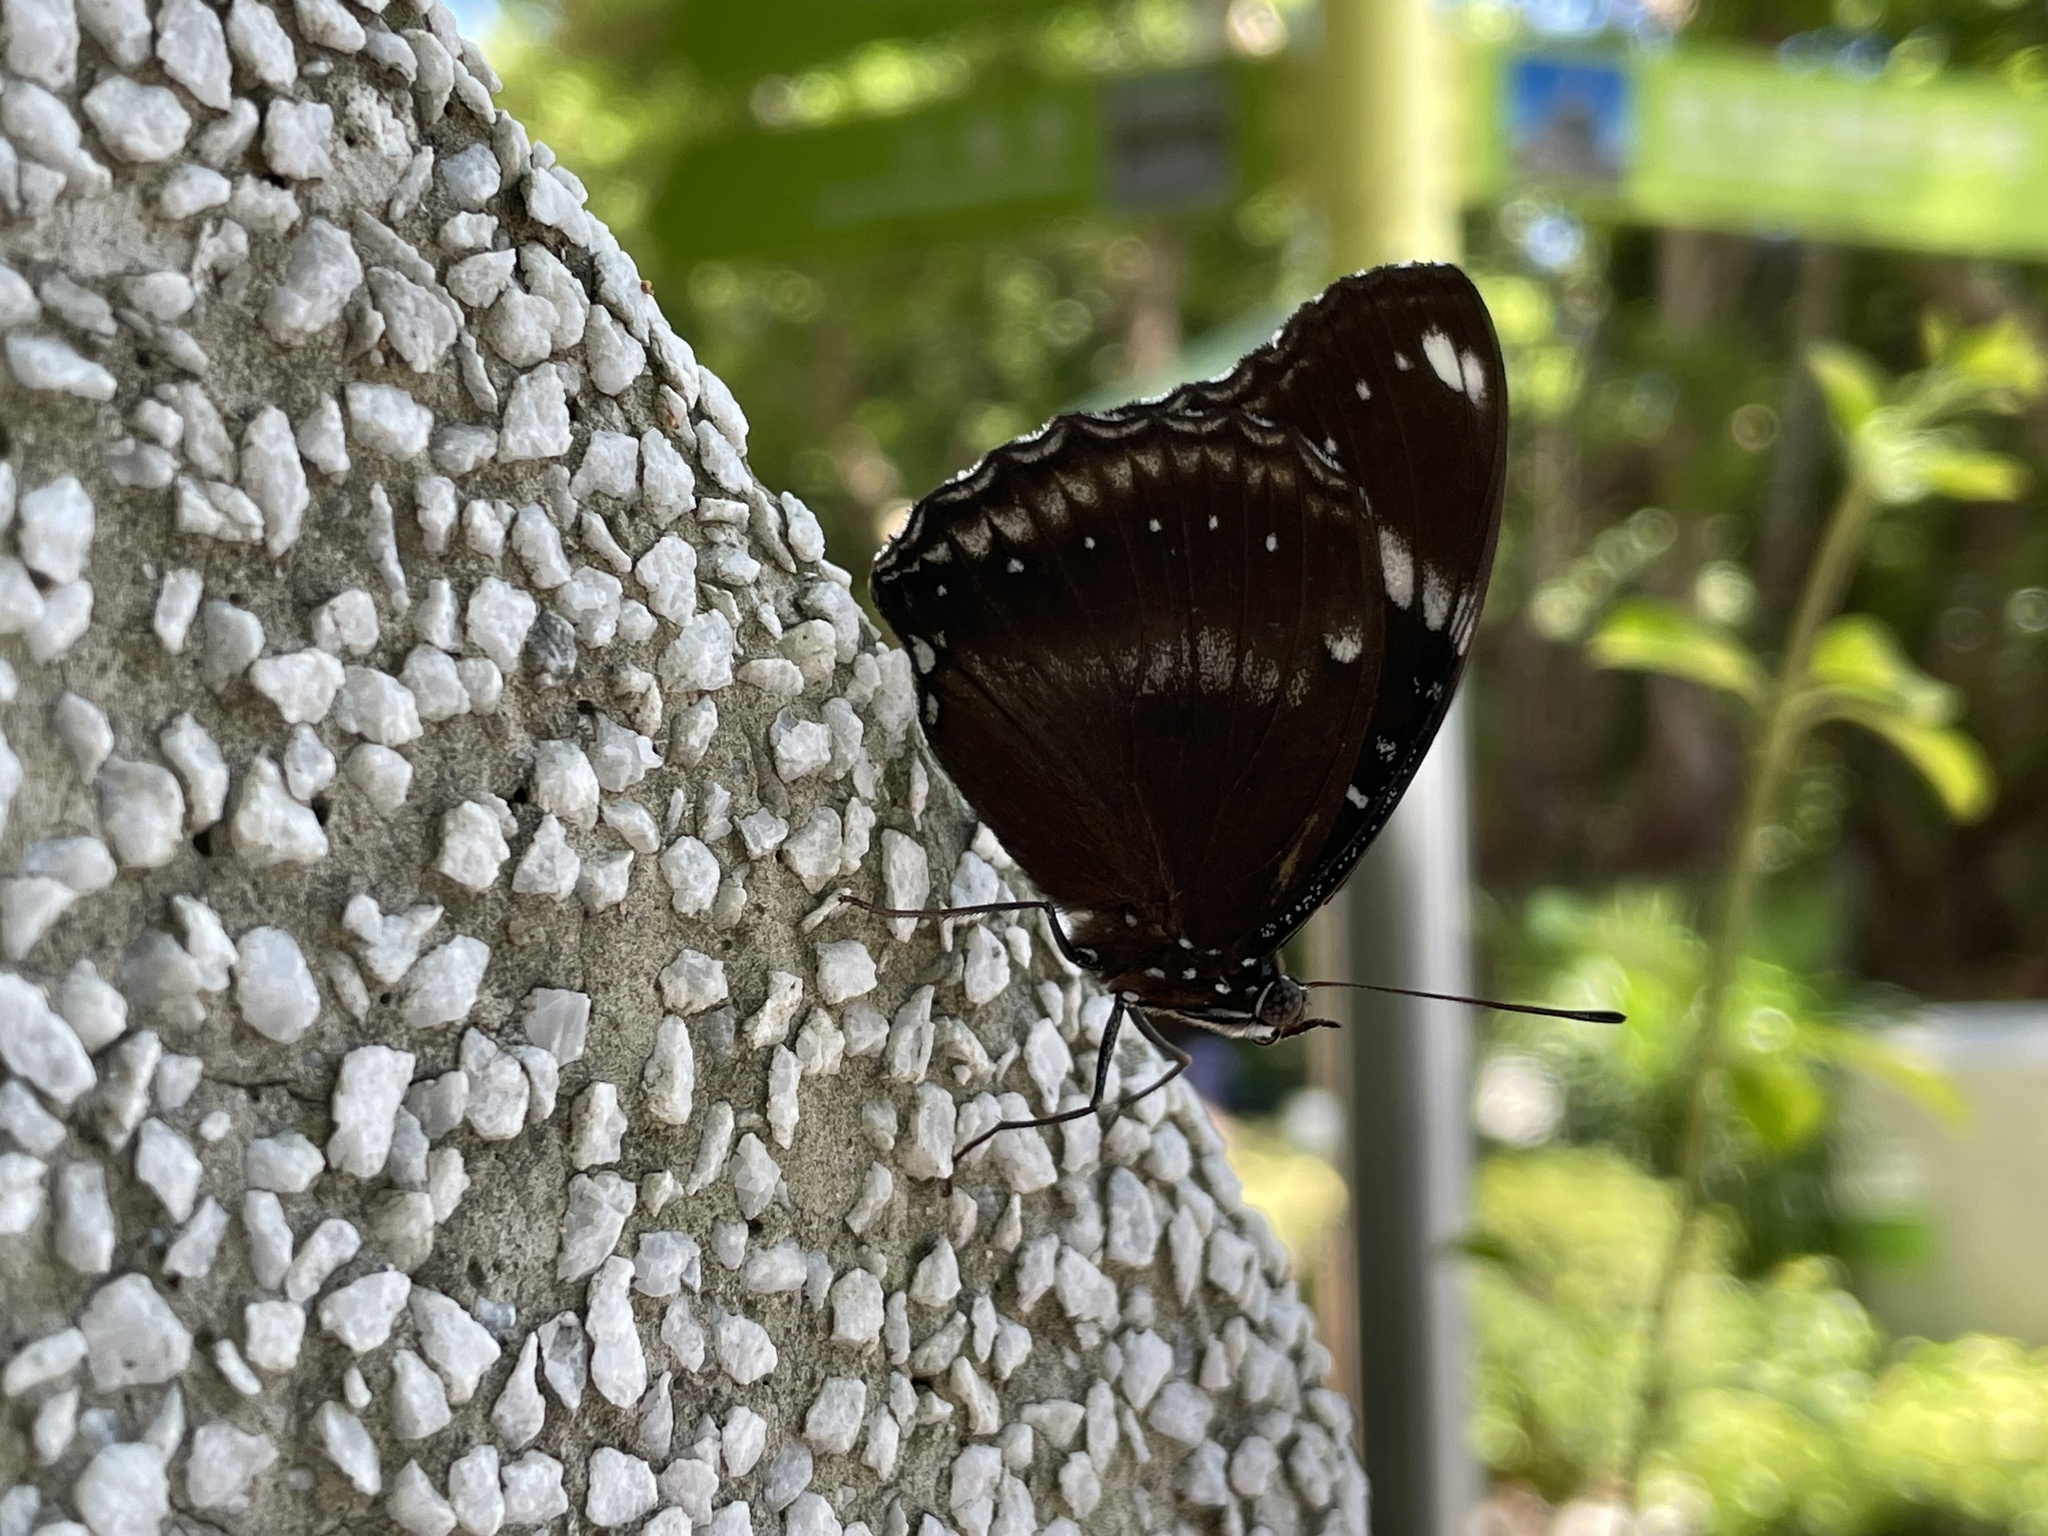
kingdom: Animalia
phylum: Arthropoda
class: Insecta
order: Lepidoptera
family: Nymphalidae
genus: Hypolimnas
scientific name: Hypolimnas bolina
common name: Great eggfly
